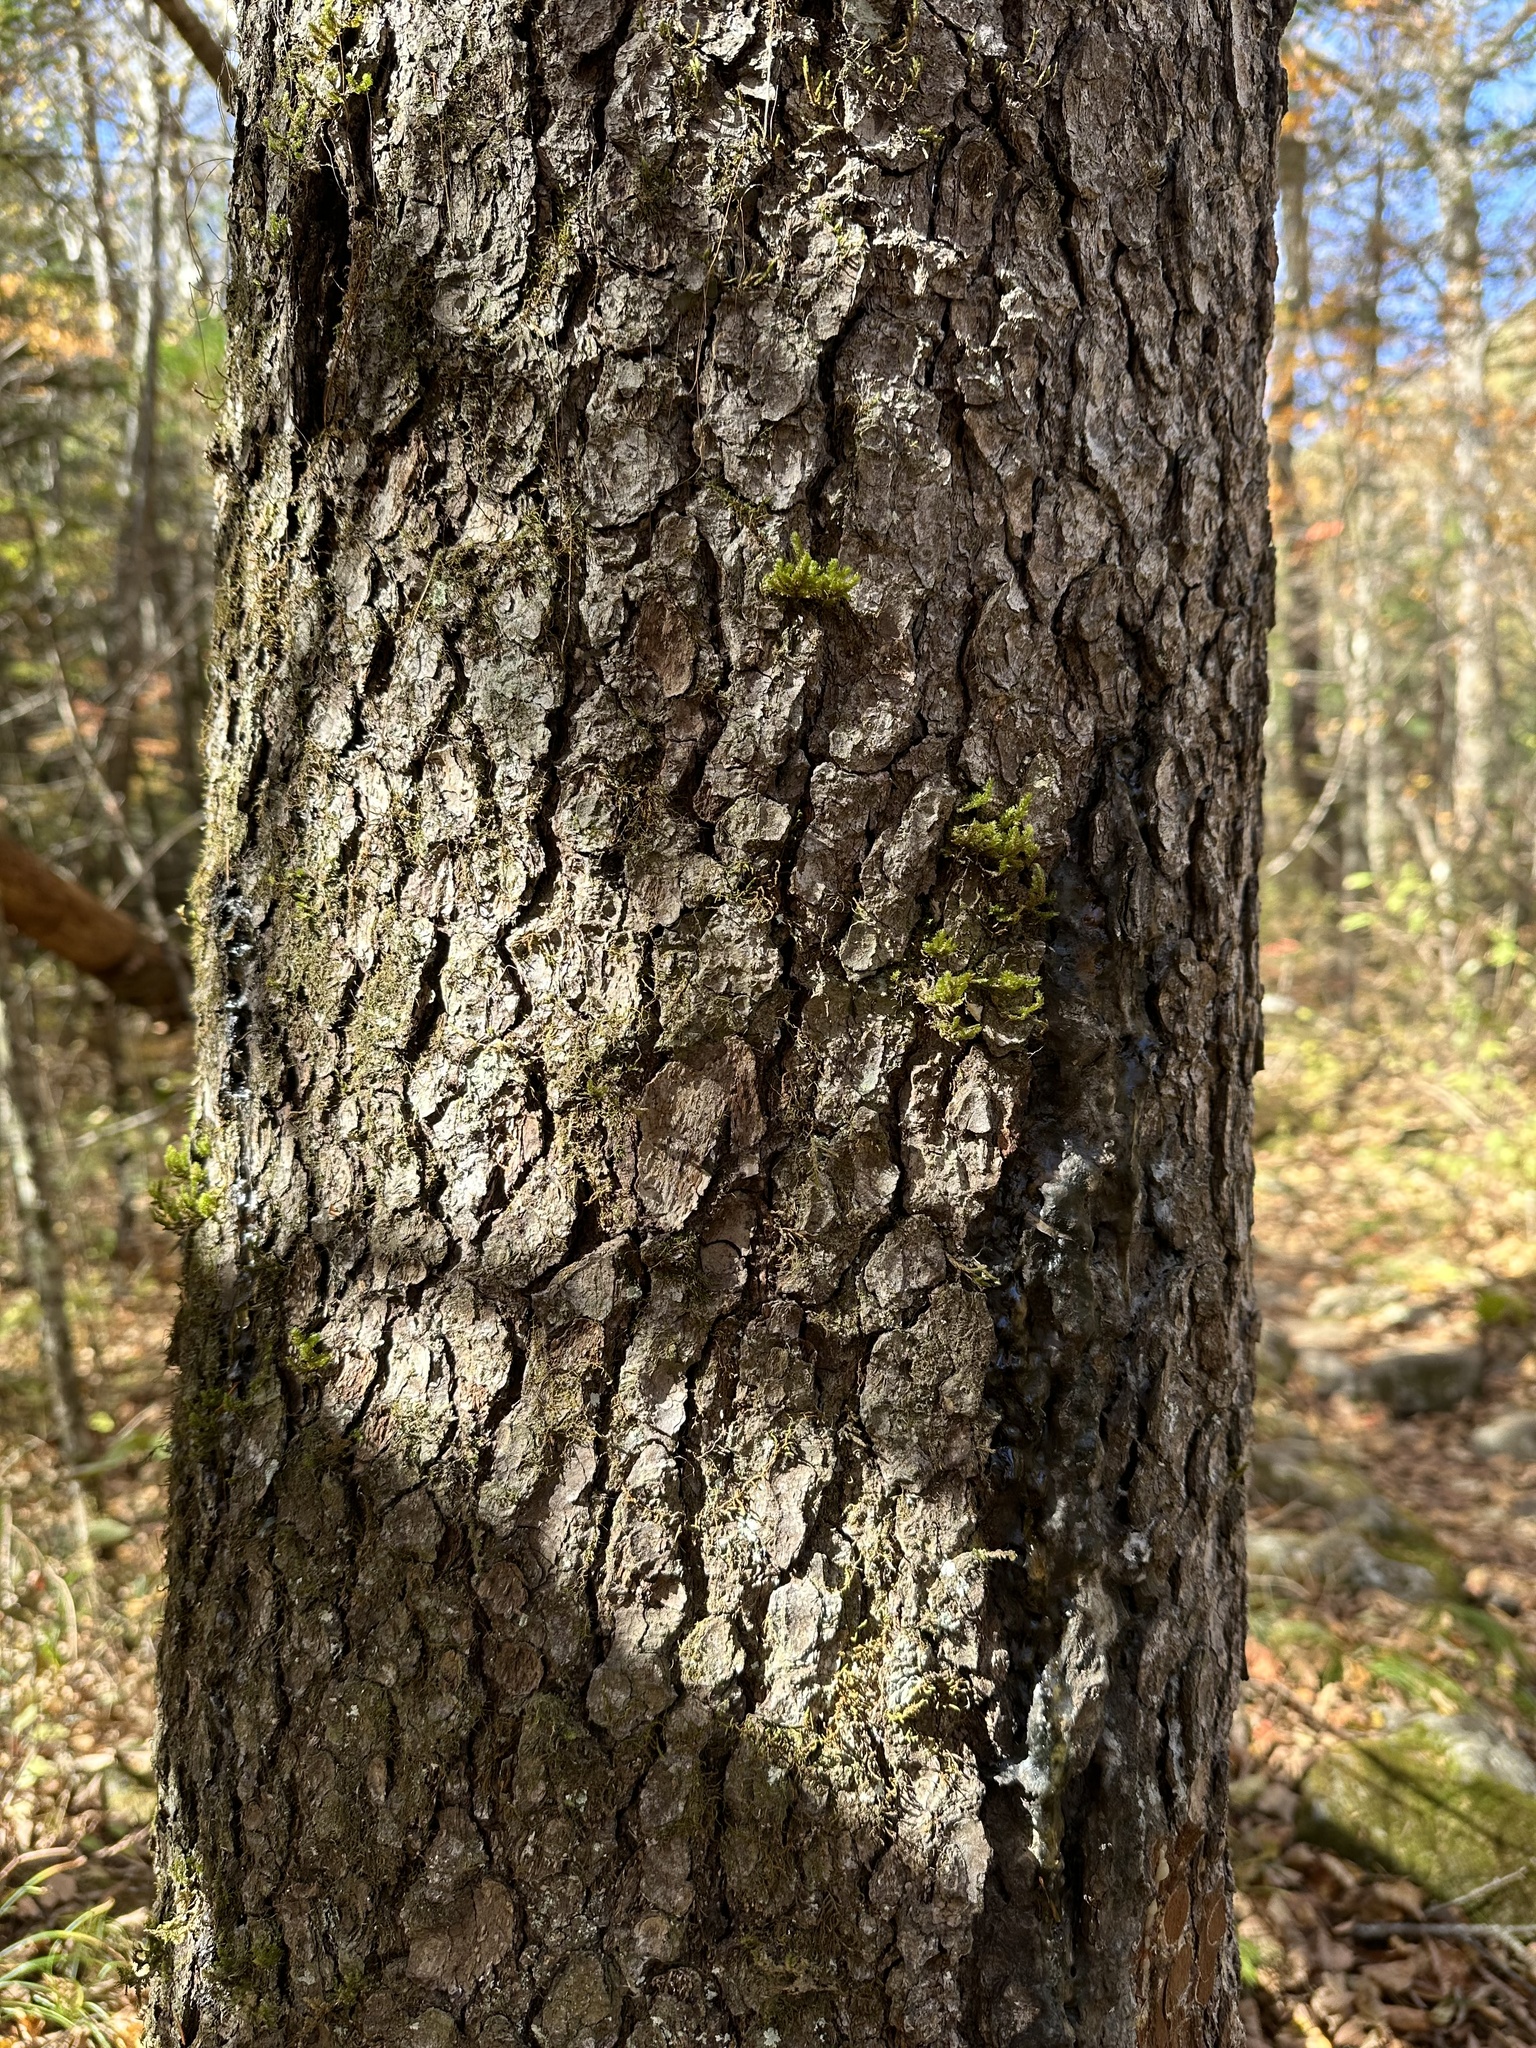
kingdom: Plantae
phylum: Tracheophyta
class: Pinopsida
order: Pinales
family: Pinaceae
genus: Picea
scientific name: Picea jezoensis
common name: Yeddo spruce
